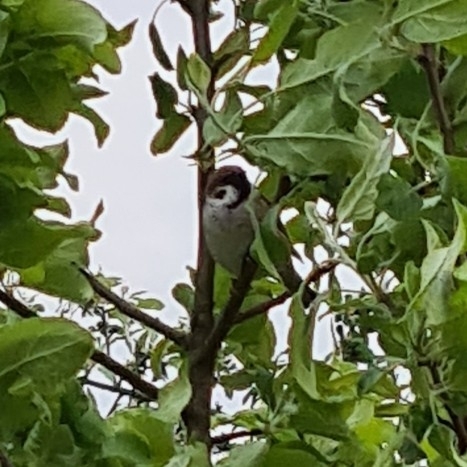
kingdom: Animalia
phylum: Chordata
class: Aves
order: Passeriformes
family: Passeridae
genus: Passer
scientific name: Passer montanus
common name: Eurasian tree sparrow
